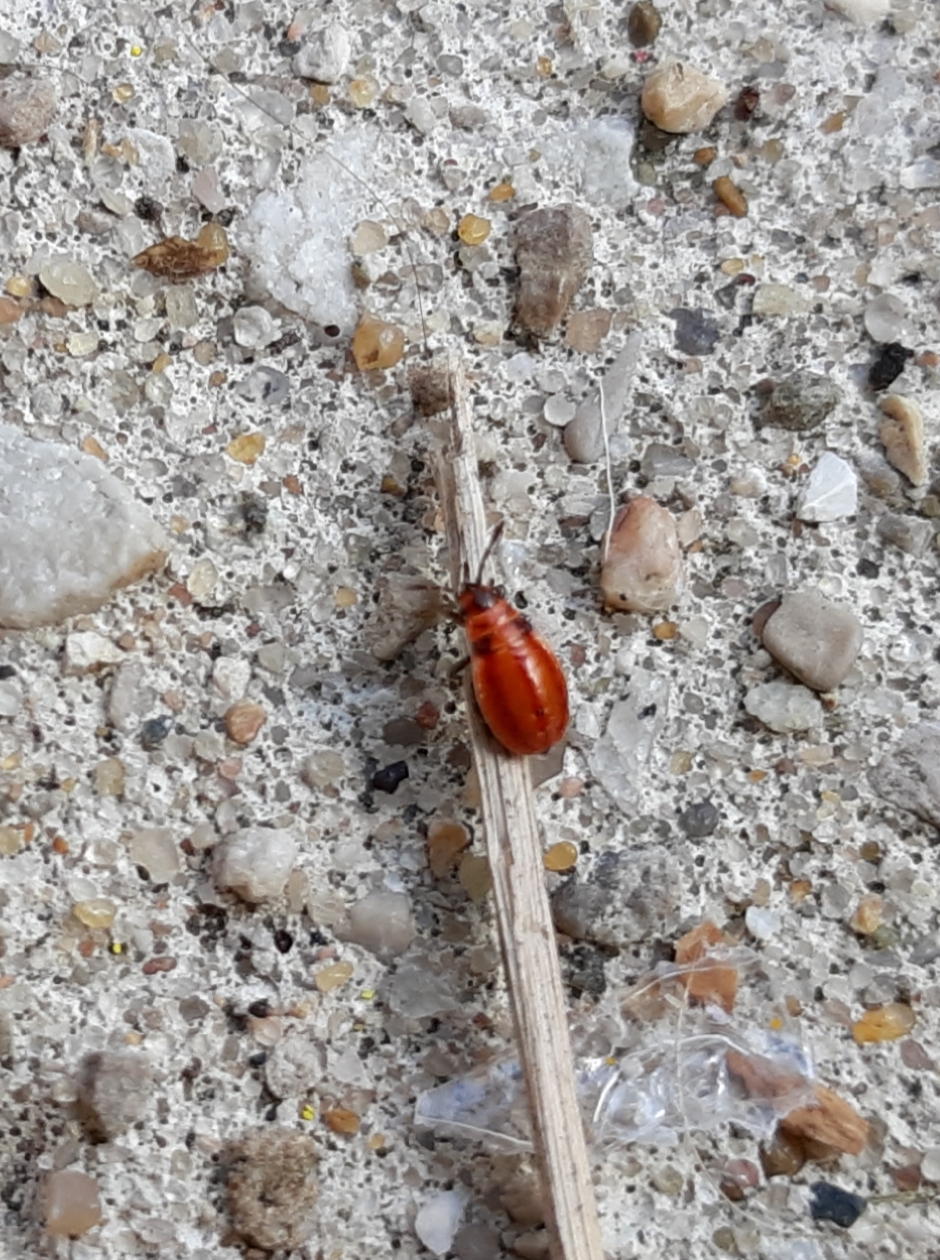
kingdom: Animalia
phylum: Arthropoda
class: Insecta
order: Hemiptera
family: Lygaeidae
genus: Lygaeus
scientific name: Lygaeus kalmii
